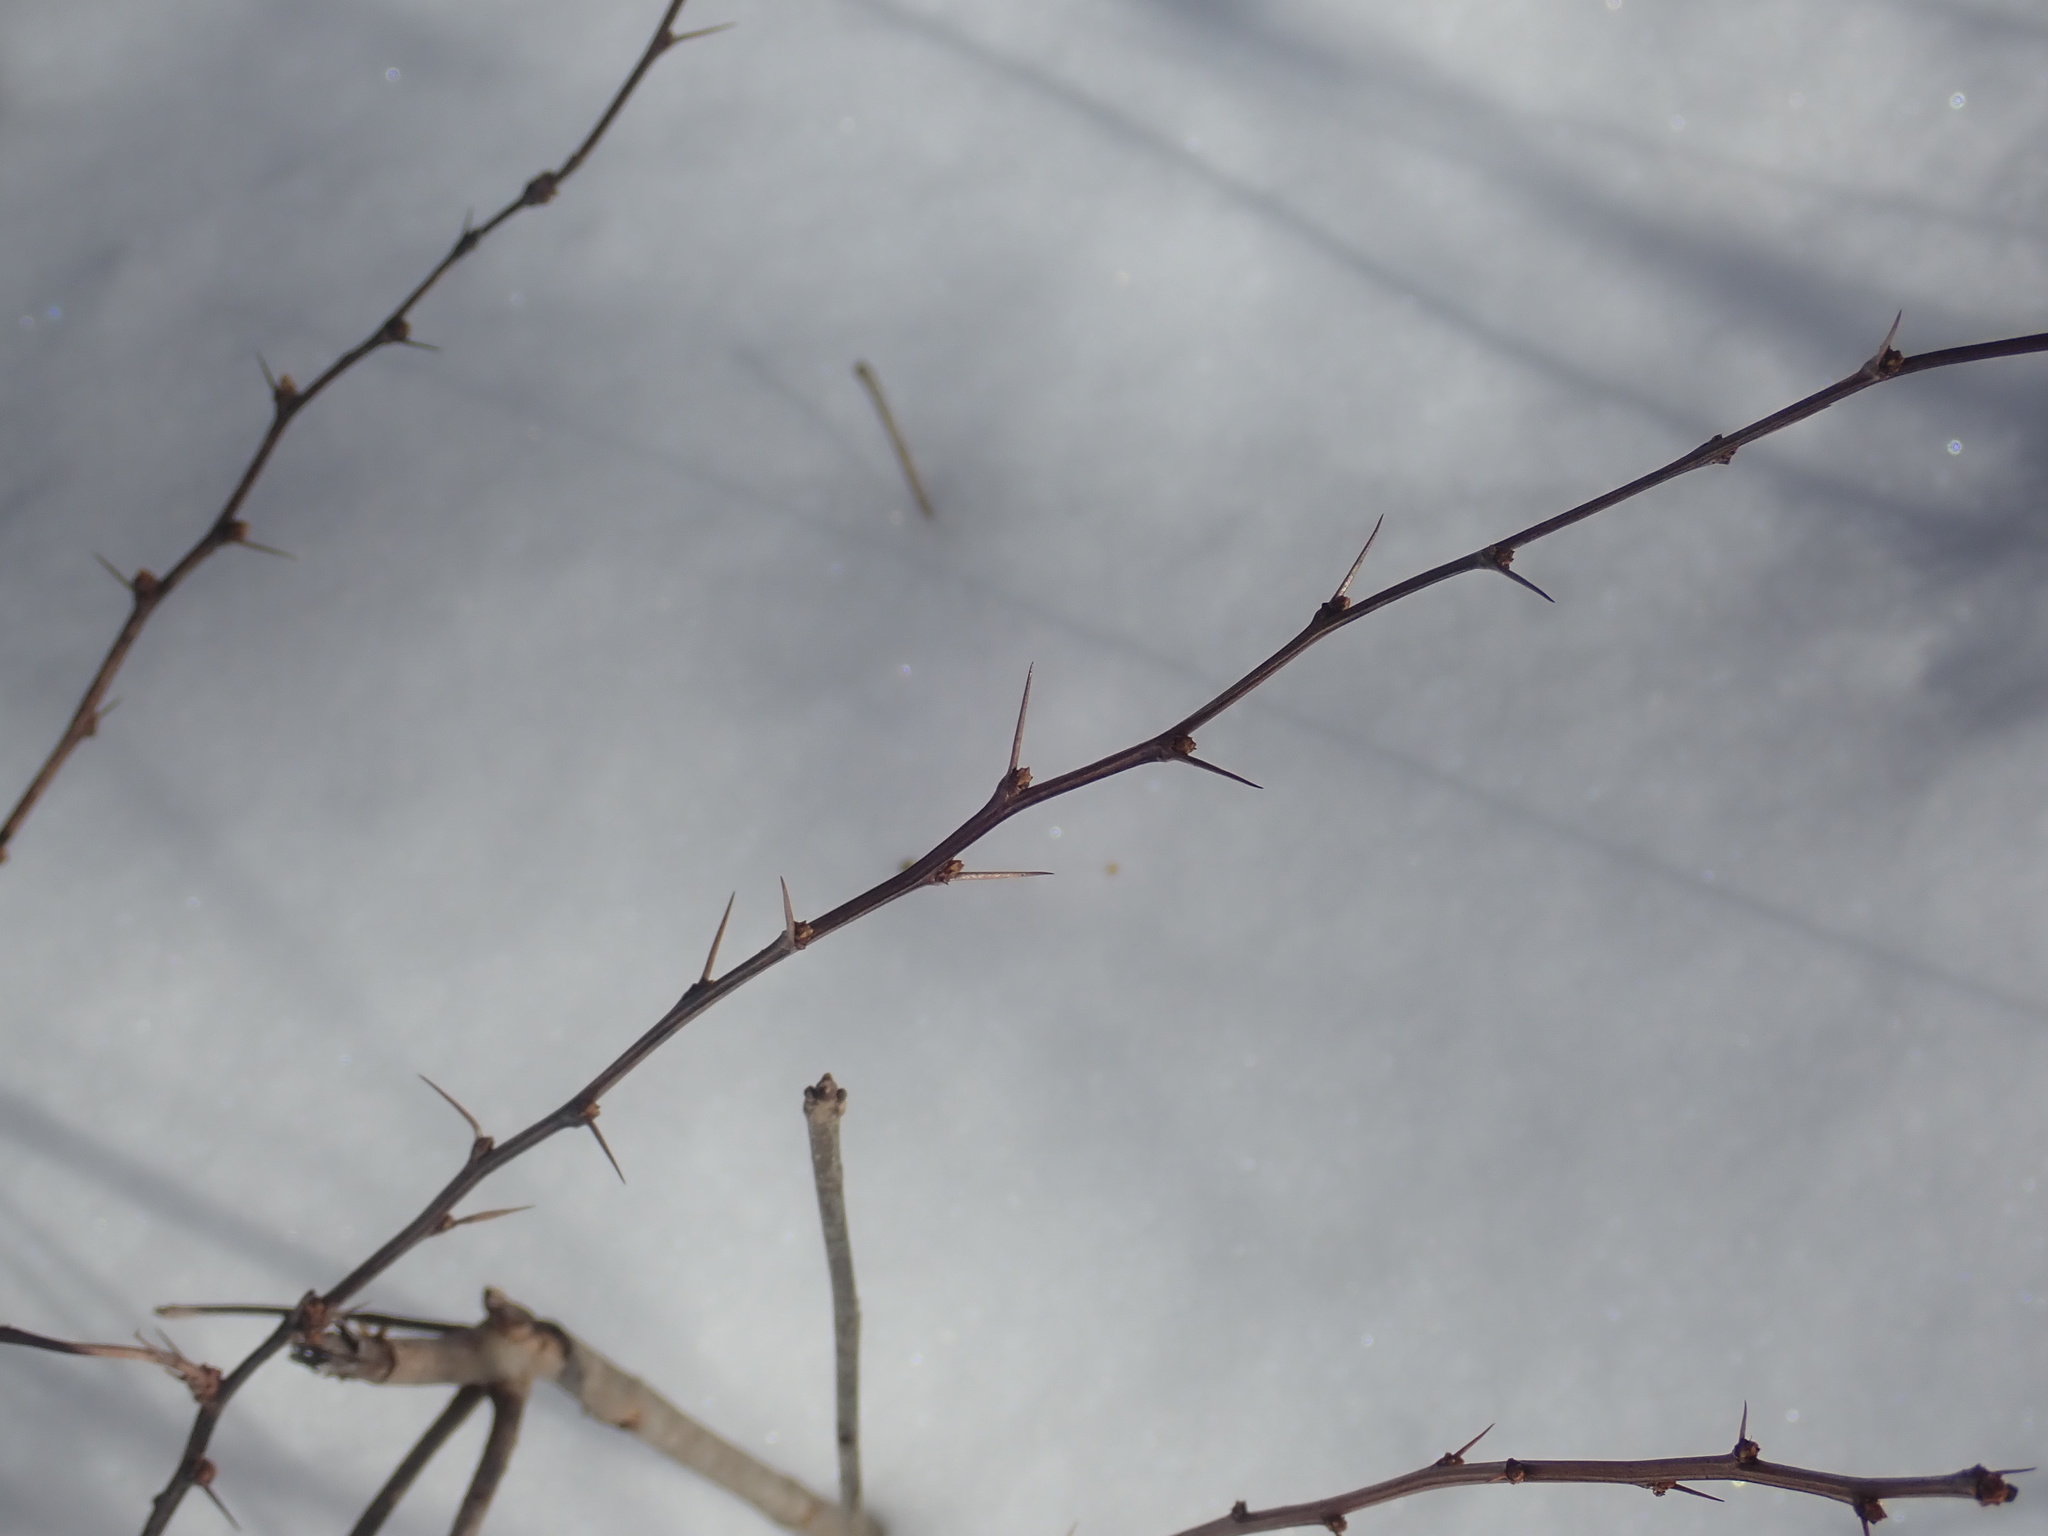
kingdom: Plantae
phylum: Tracheophyta
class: Magnoliopsida
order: Ranunculales
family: Berberidaceae
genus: Berberis
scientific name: Berberis thunbergii
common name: Japanese barberry
